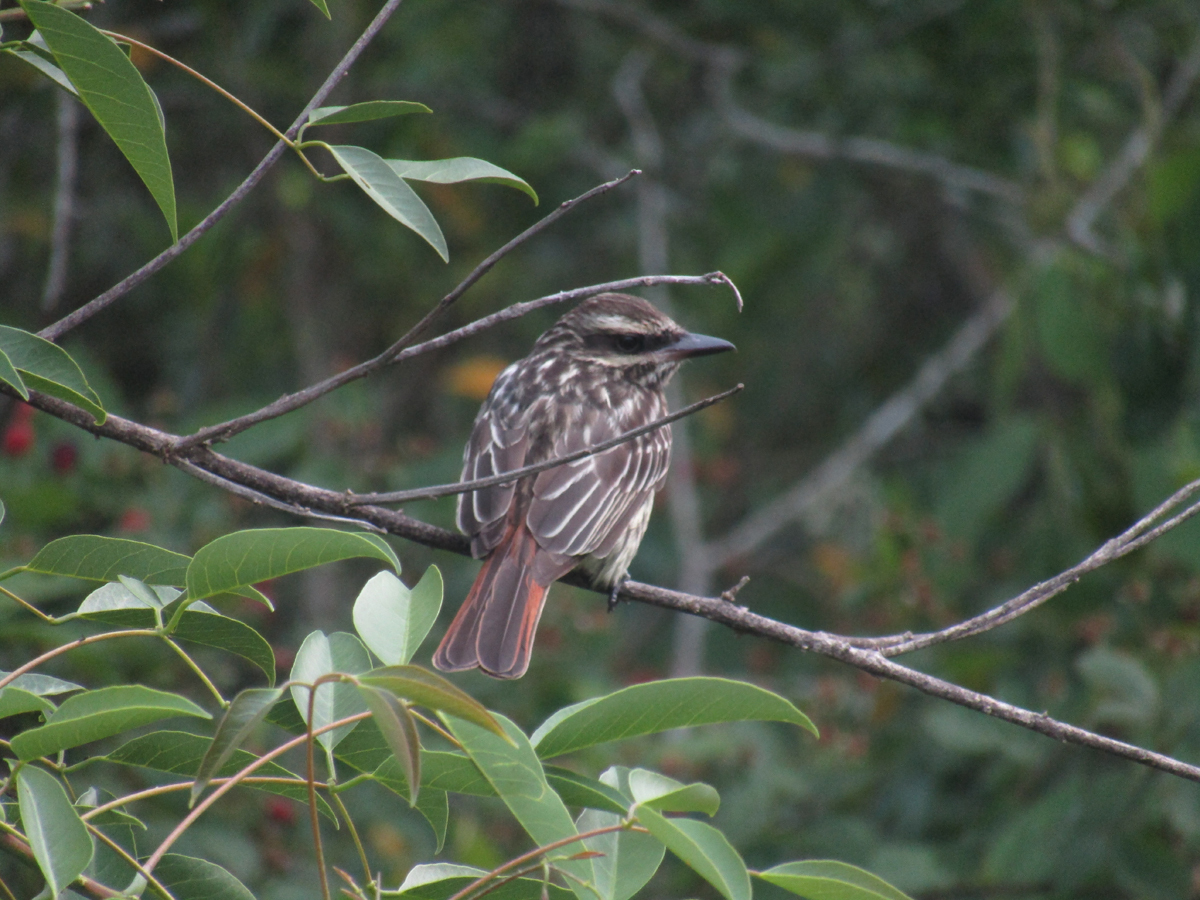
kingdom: Animalia
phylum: Chordata
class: Aves
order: Passeriformes
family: Tyrannidae
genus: Myiodynastes
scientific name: Myiodynastes maculatus
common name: Streaked flycatcher
